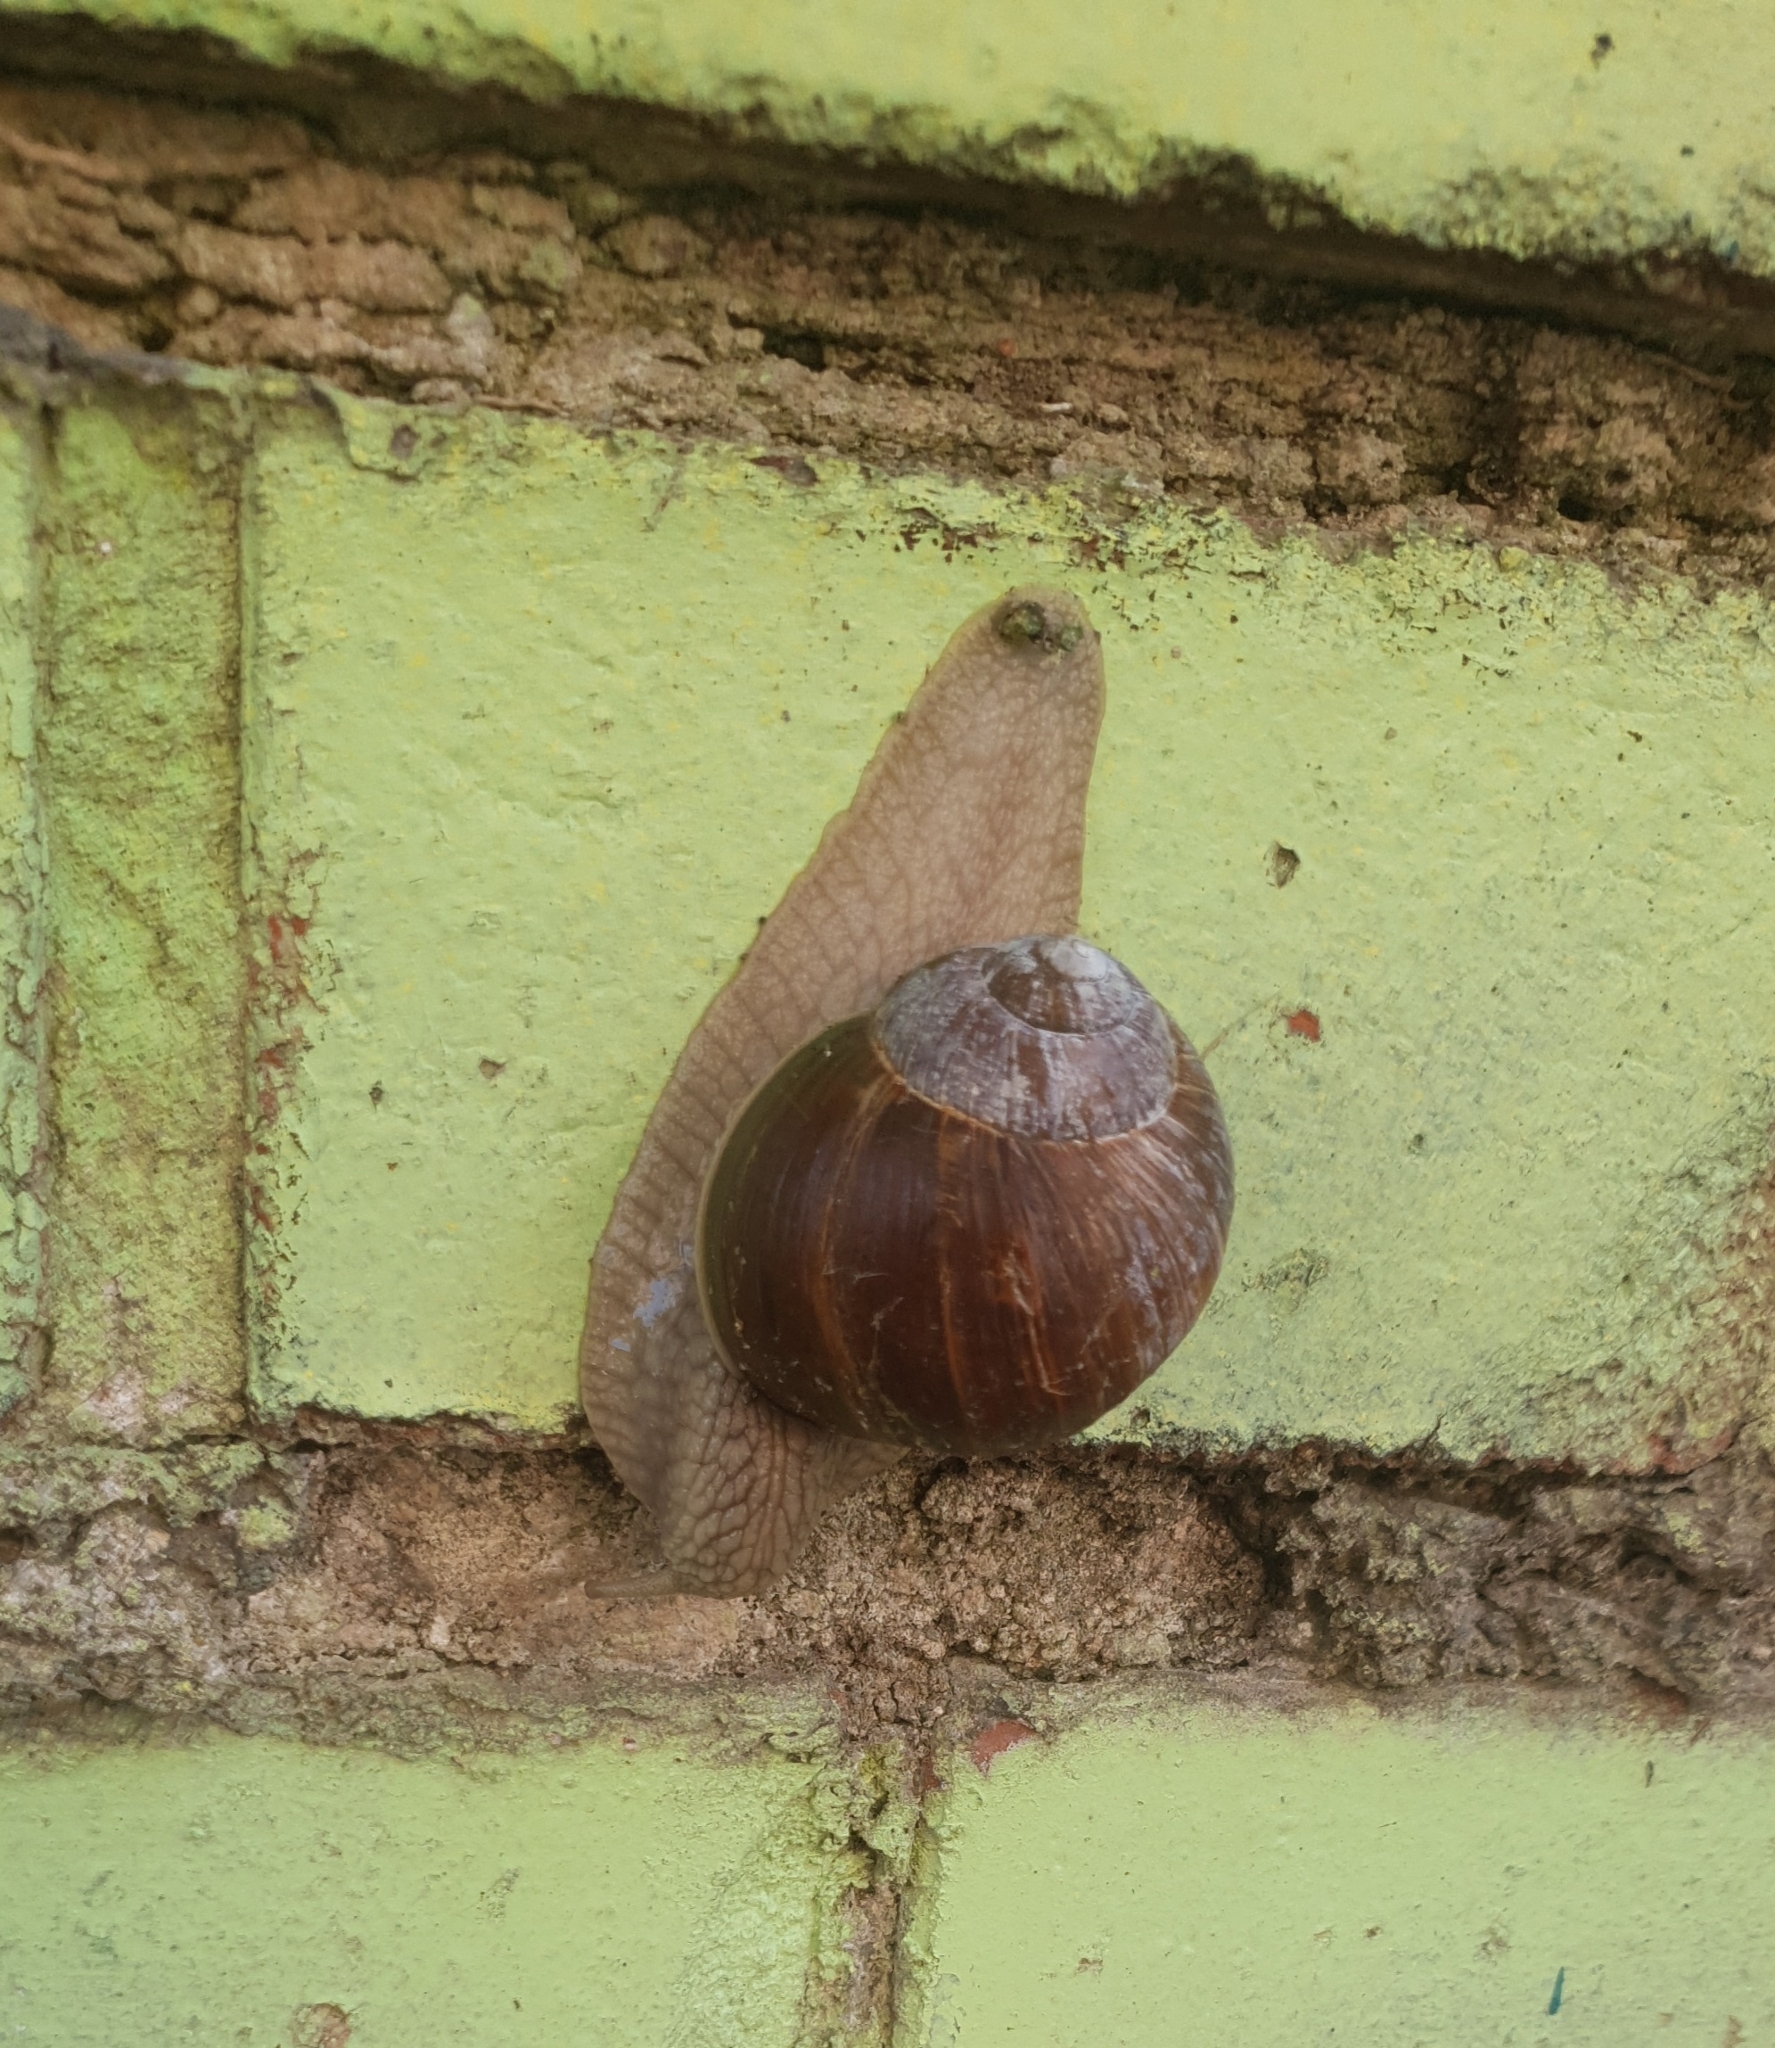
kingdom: Animalia
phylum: Mollusca
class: Gastropoda
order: Stylommatophora
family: Helicidae
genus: Helix
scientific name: Helix pomatia
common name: Roman snail
